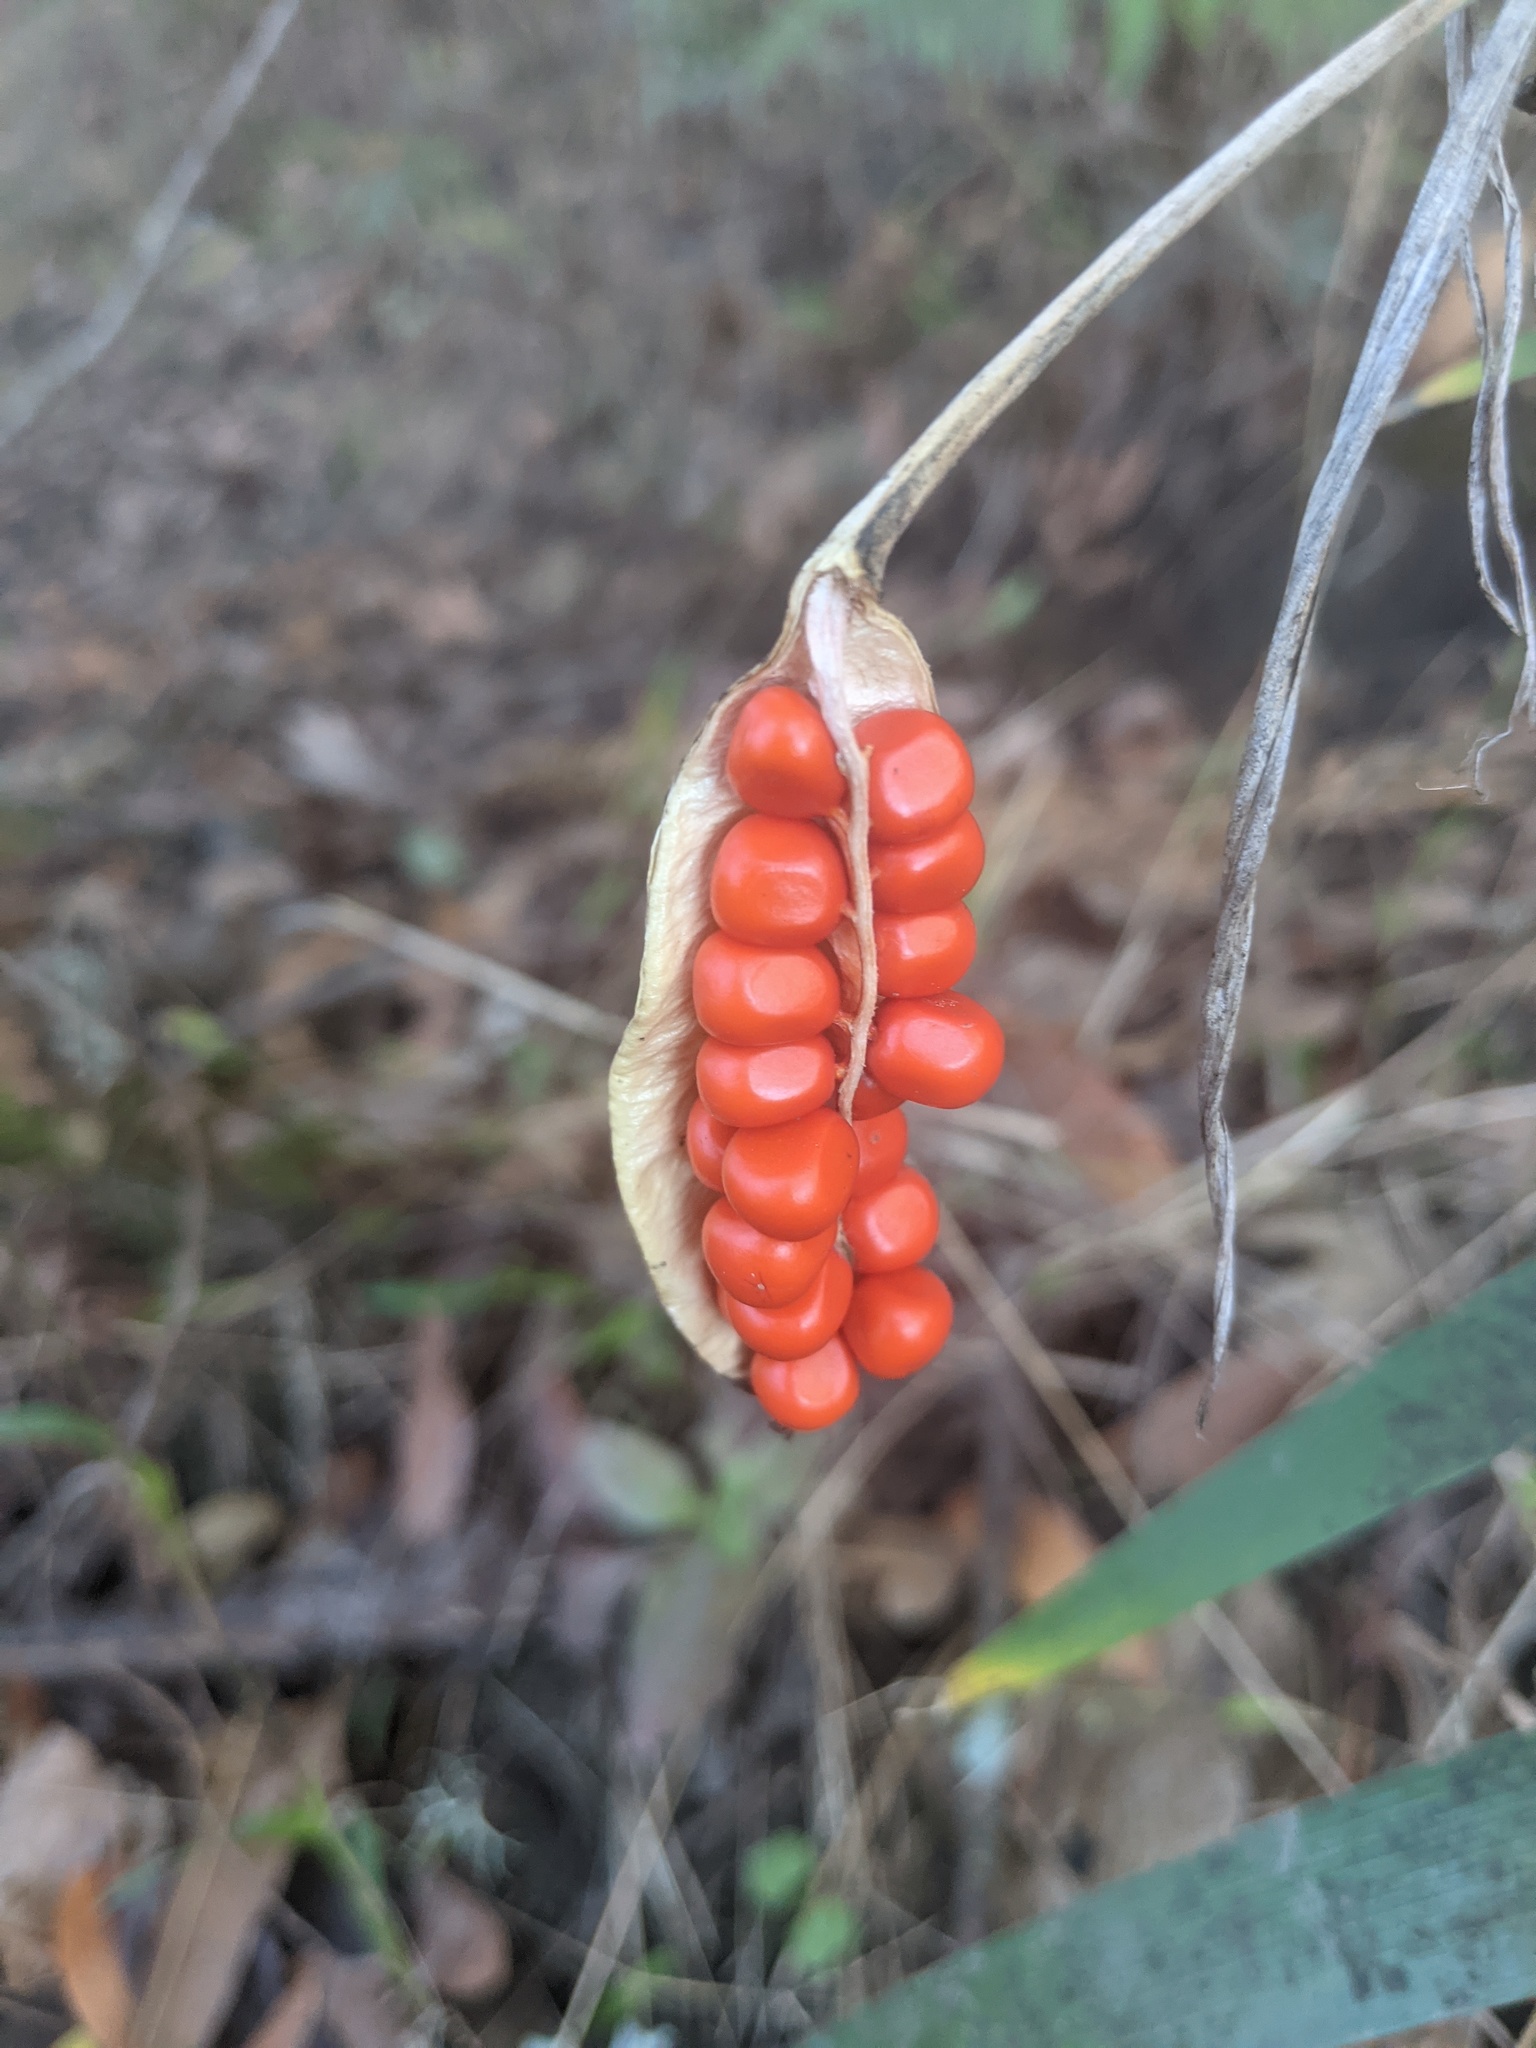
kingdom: Plantae
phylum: Tracheophyta
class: Liliopsida
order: Asparagales
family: Iridaceae
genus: Iris
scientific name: Iris foetidissima
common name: Stinking iris
